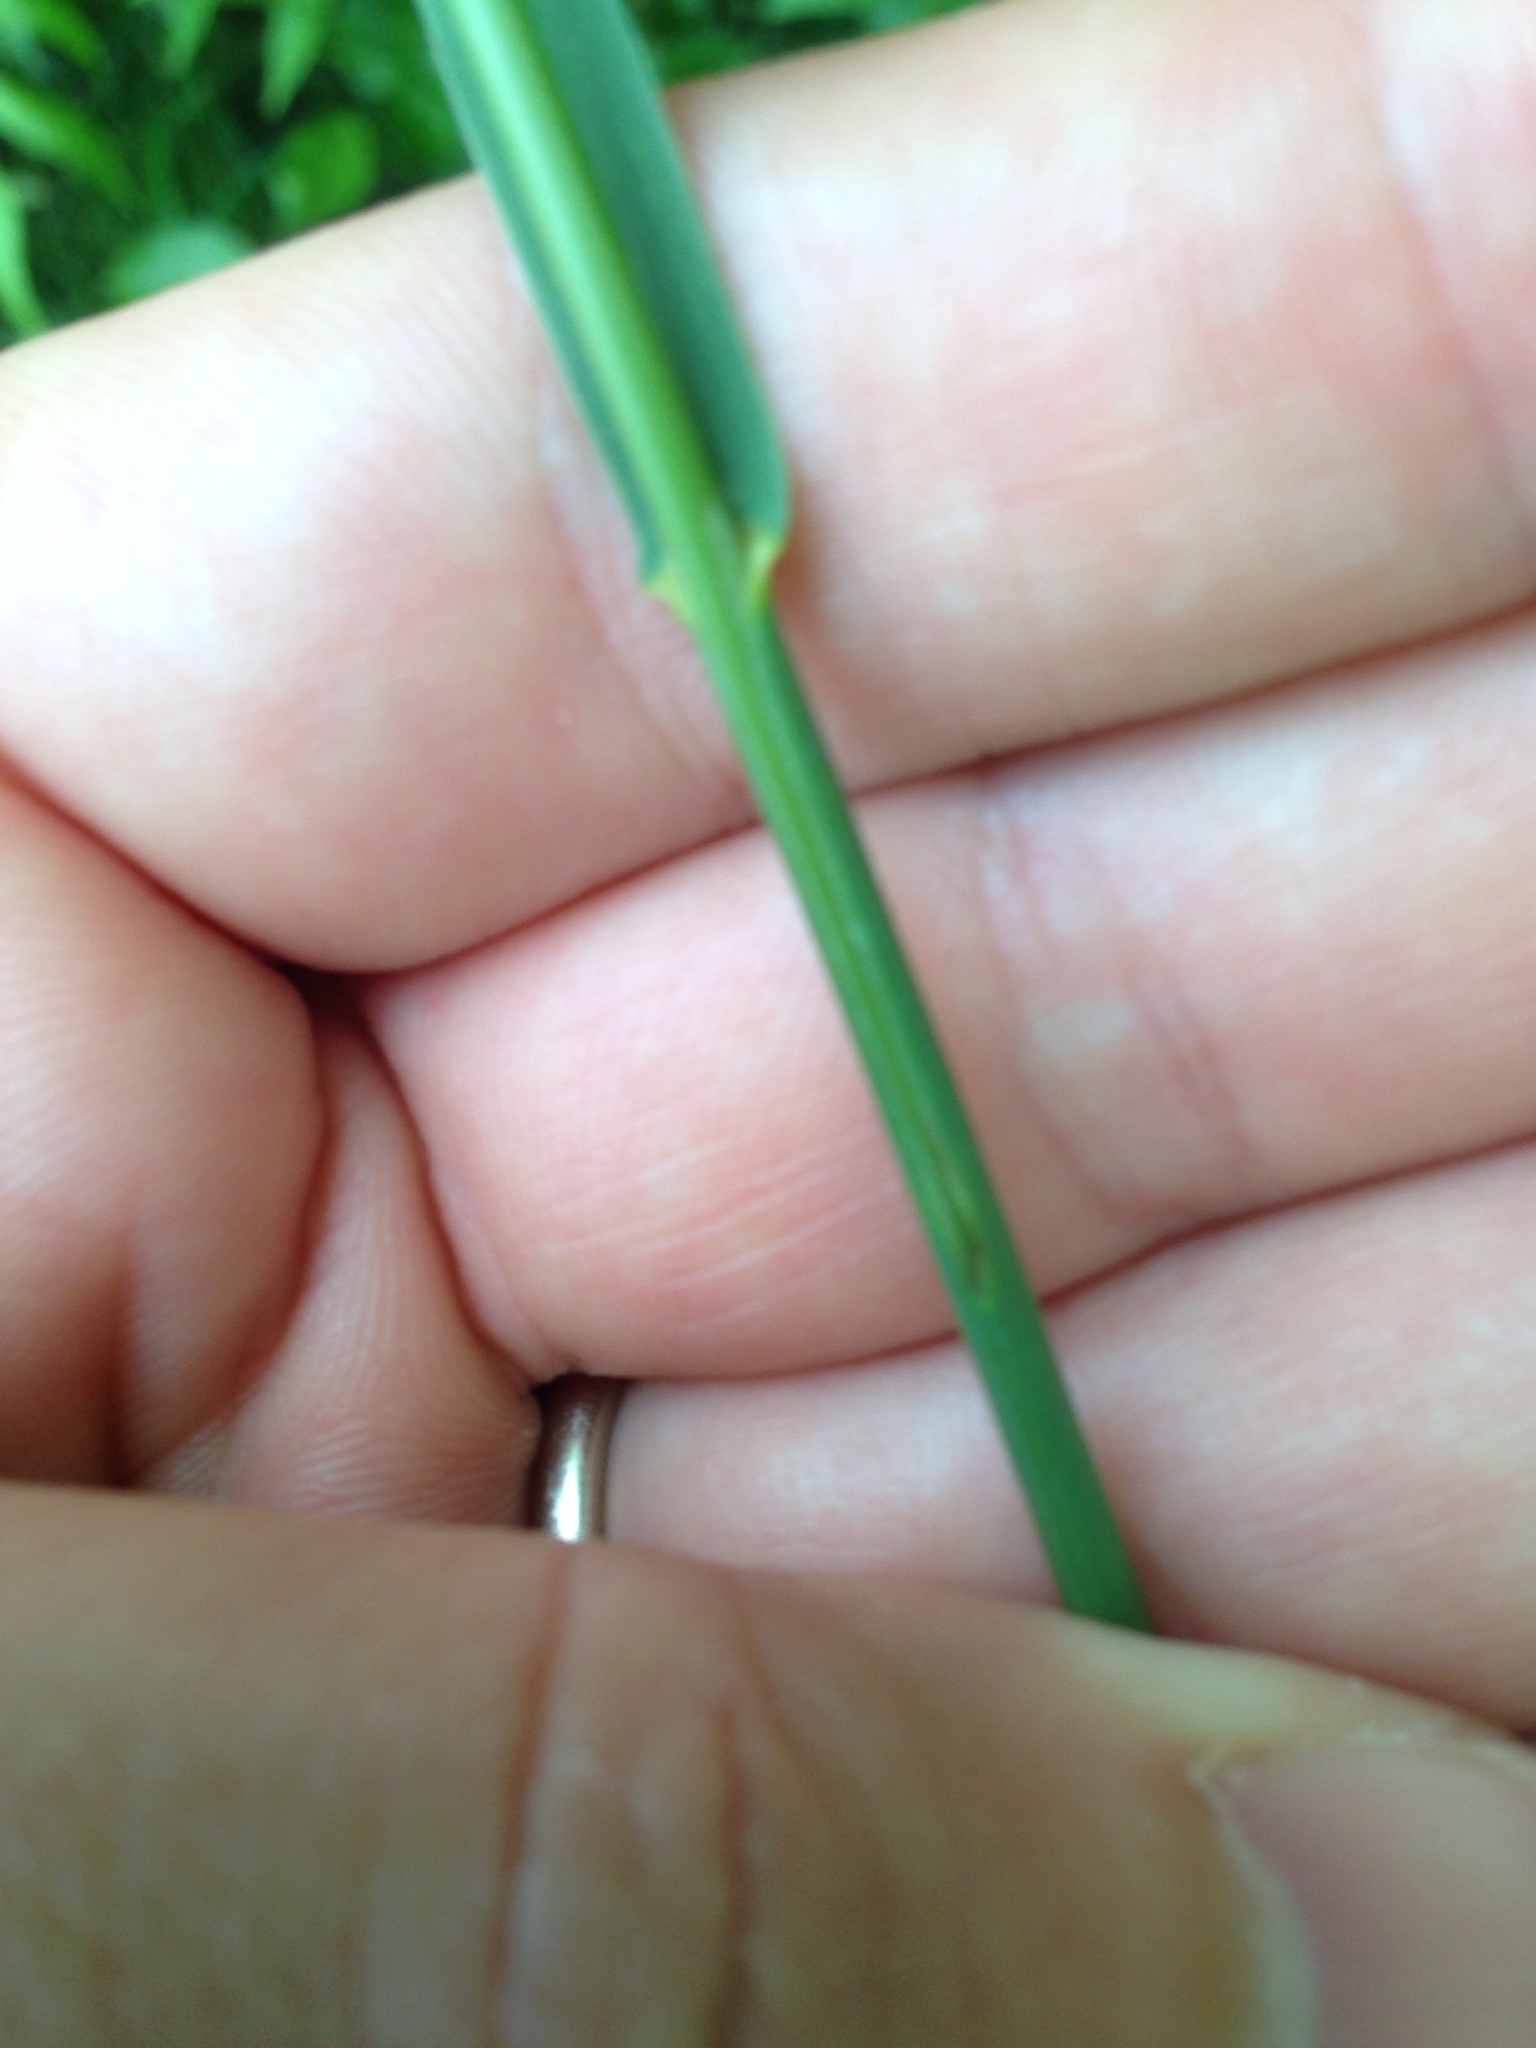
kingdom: Plantae
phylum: Tracheophyta
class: Liliopsida
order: Poales
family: Poaceae
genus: Bromus
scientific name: Bromus inermis
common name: Smooth brome
